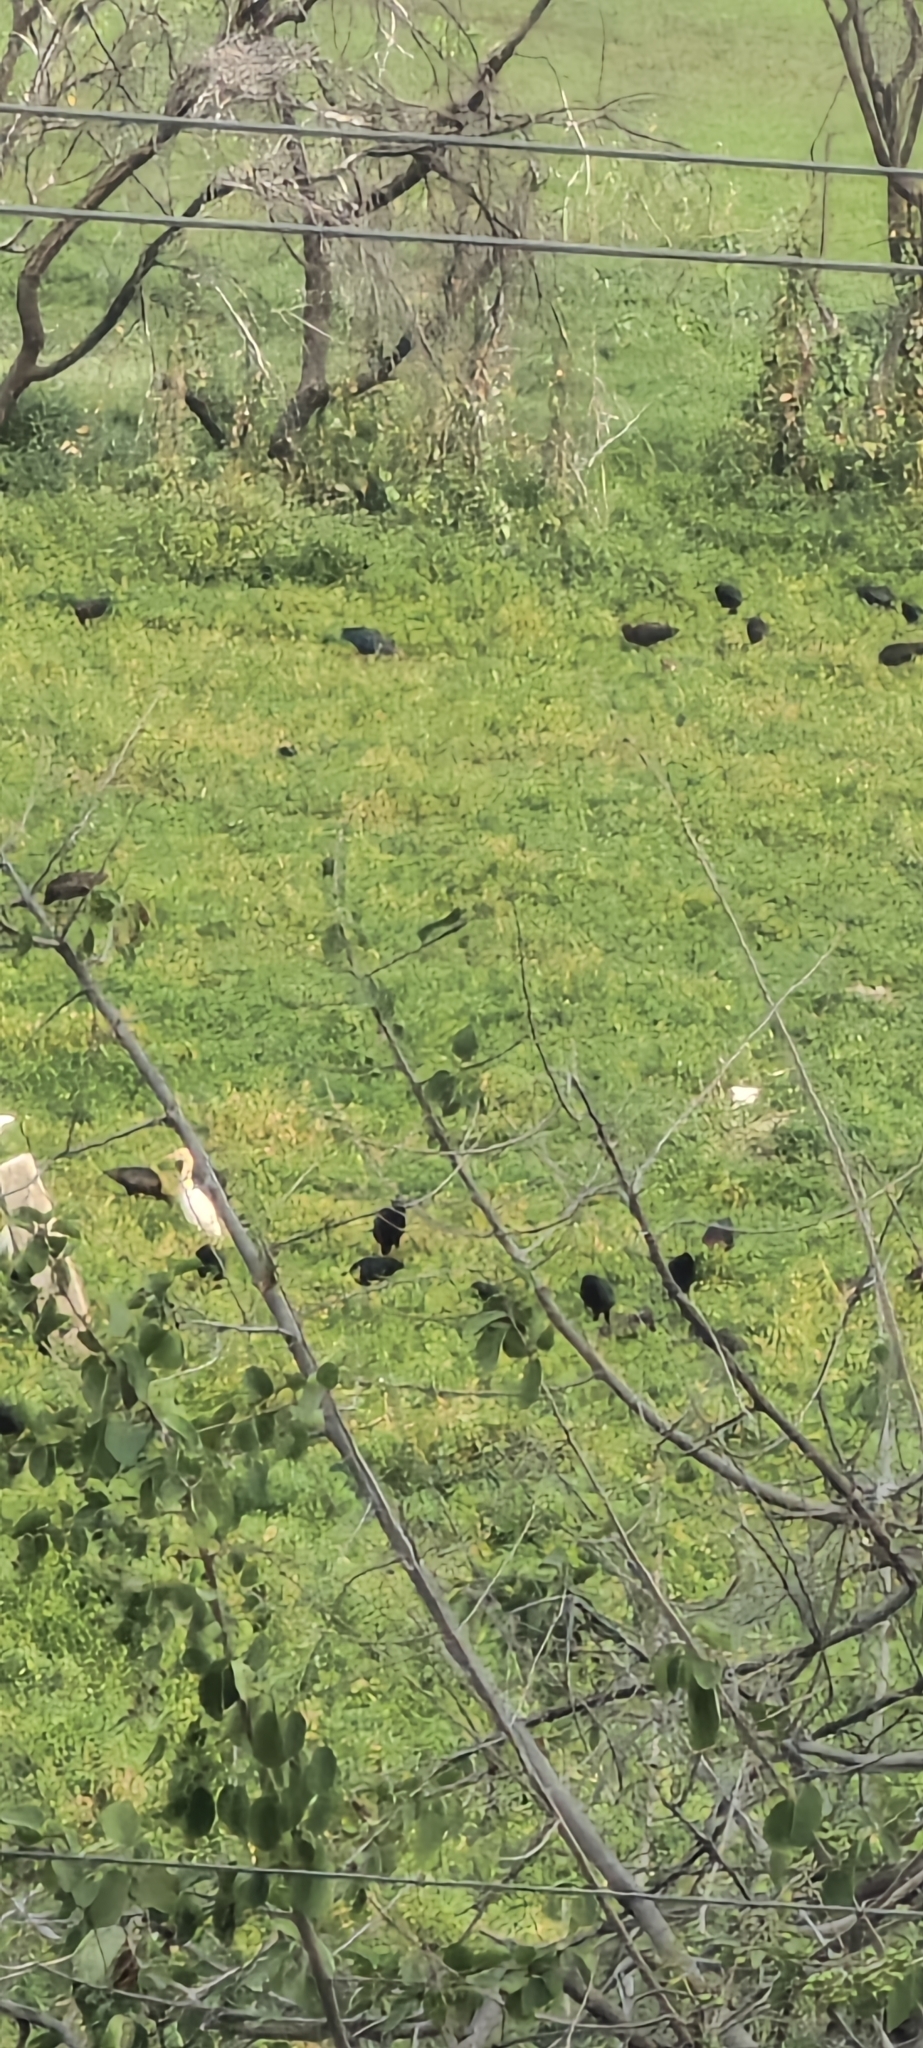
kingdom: Animalia
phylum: Chordata
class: Aves
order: Pelecaniformes
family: Ardeidae
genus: Bubulcus
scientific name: Bubulcus coromandus
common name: Eastern cattle egret
